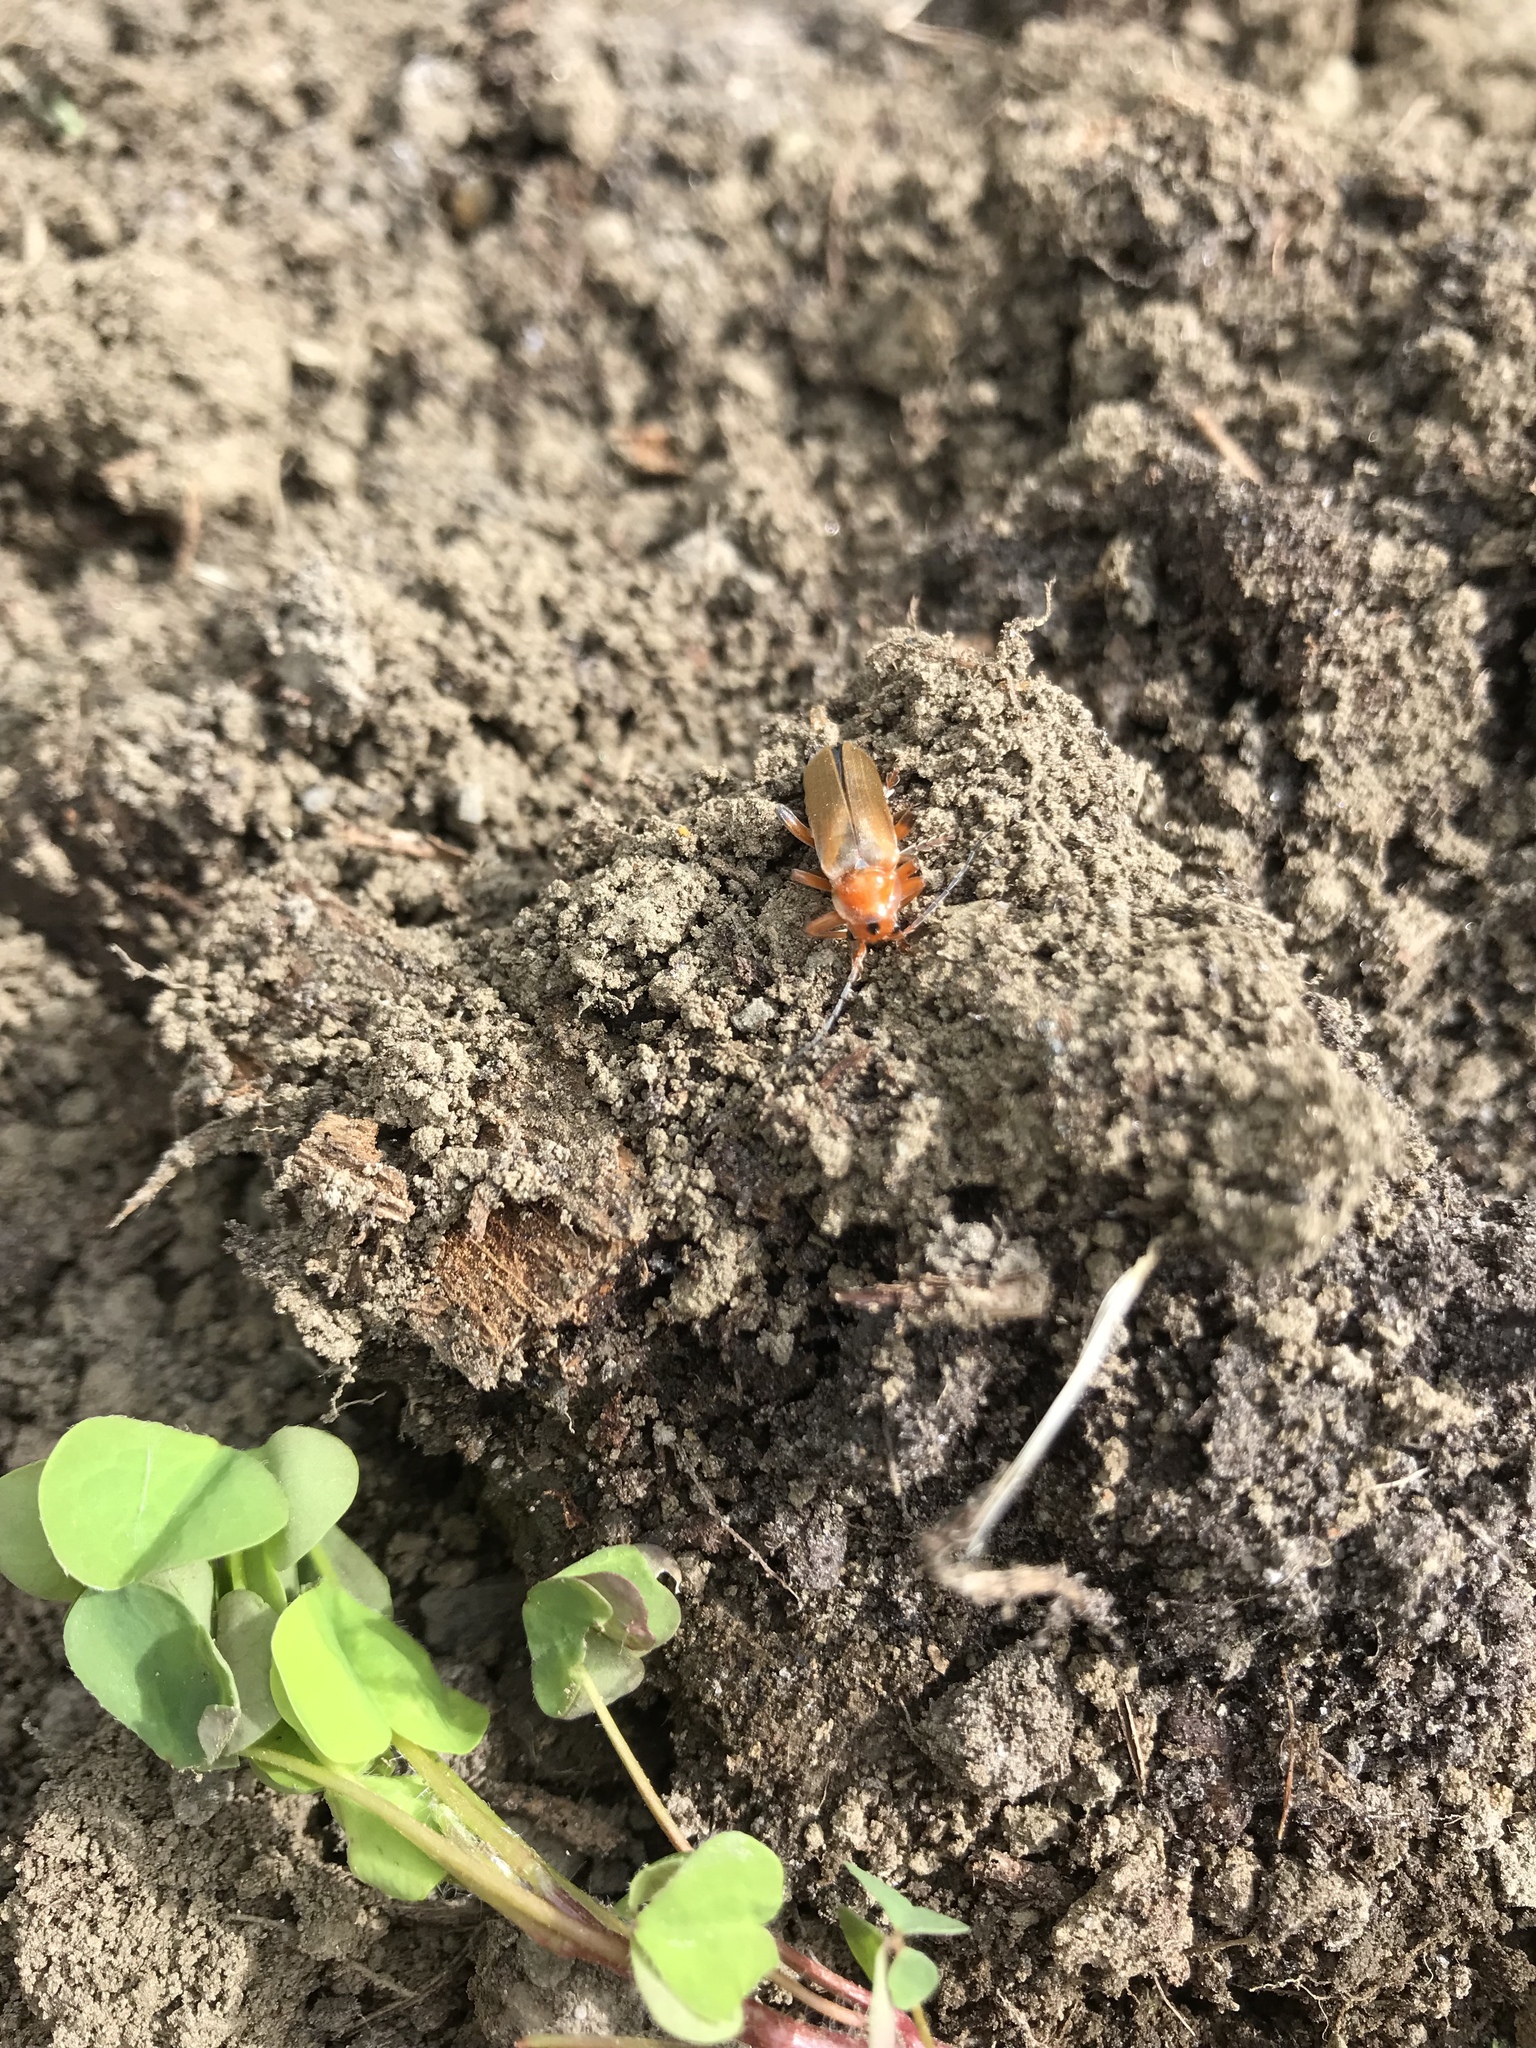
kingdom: Animalia
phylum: Arthropoda
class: Insecta
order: Coleoptera
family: Cantharidae
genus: Cantharis
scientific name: Cantharis livida
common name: Livid soldier beetle
